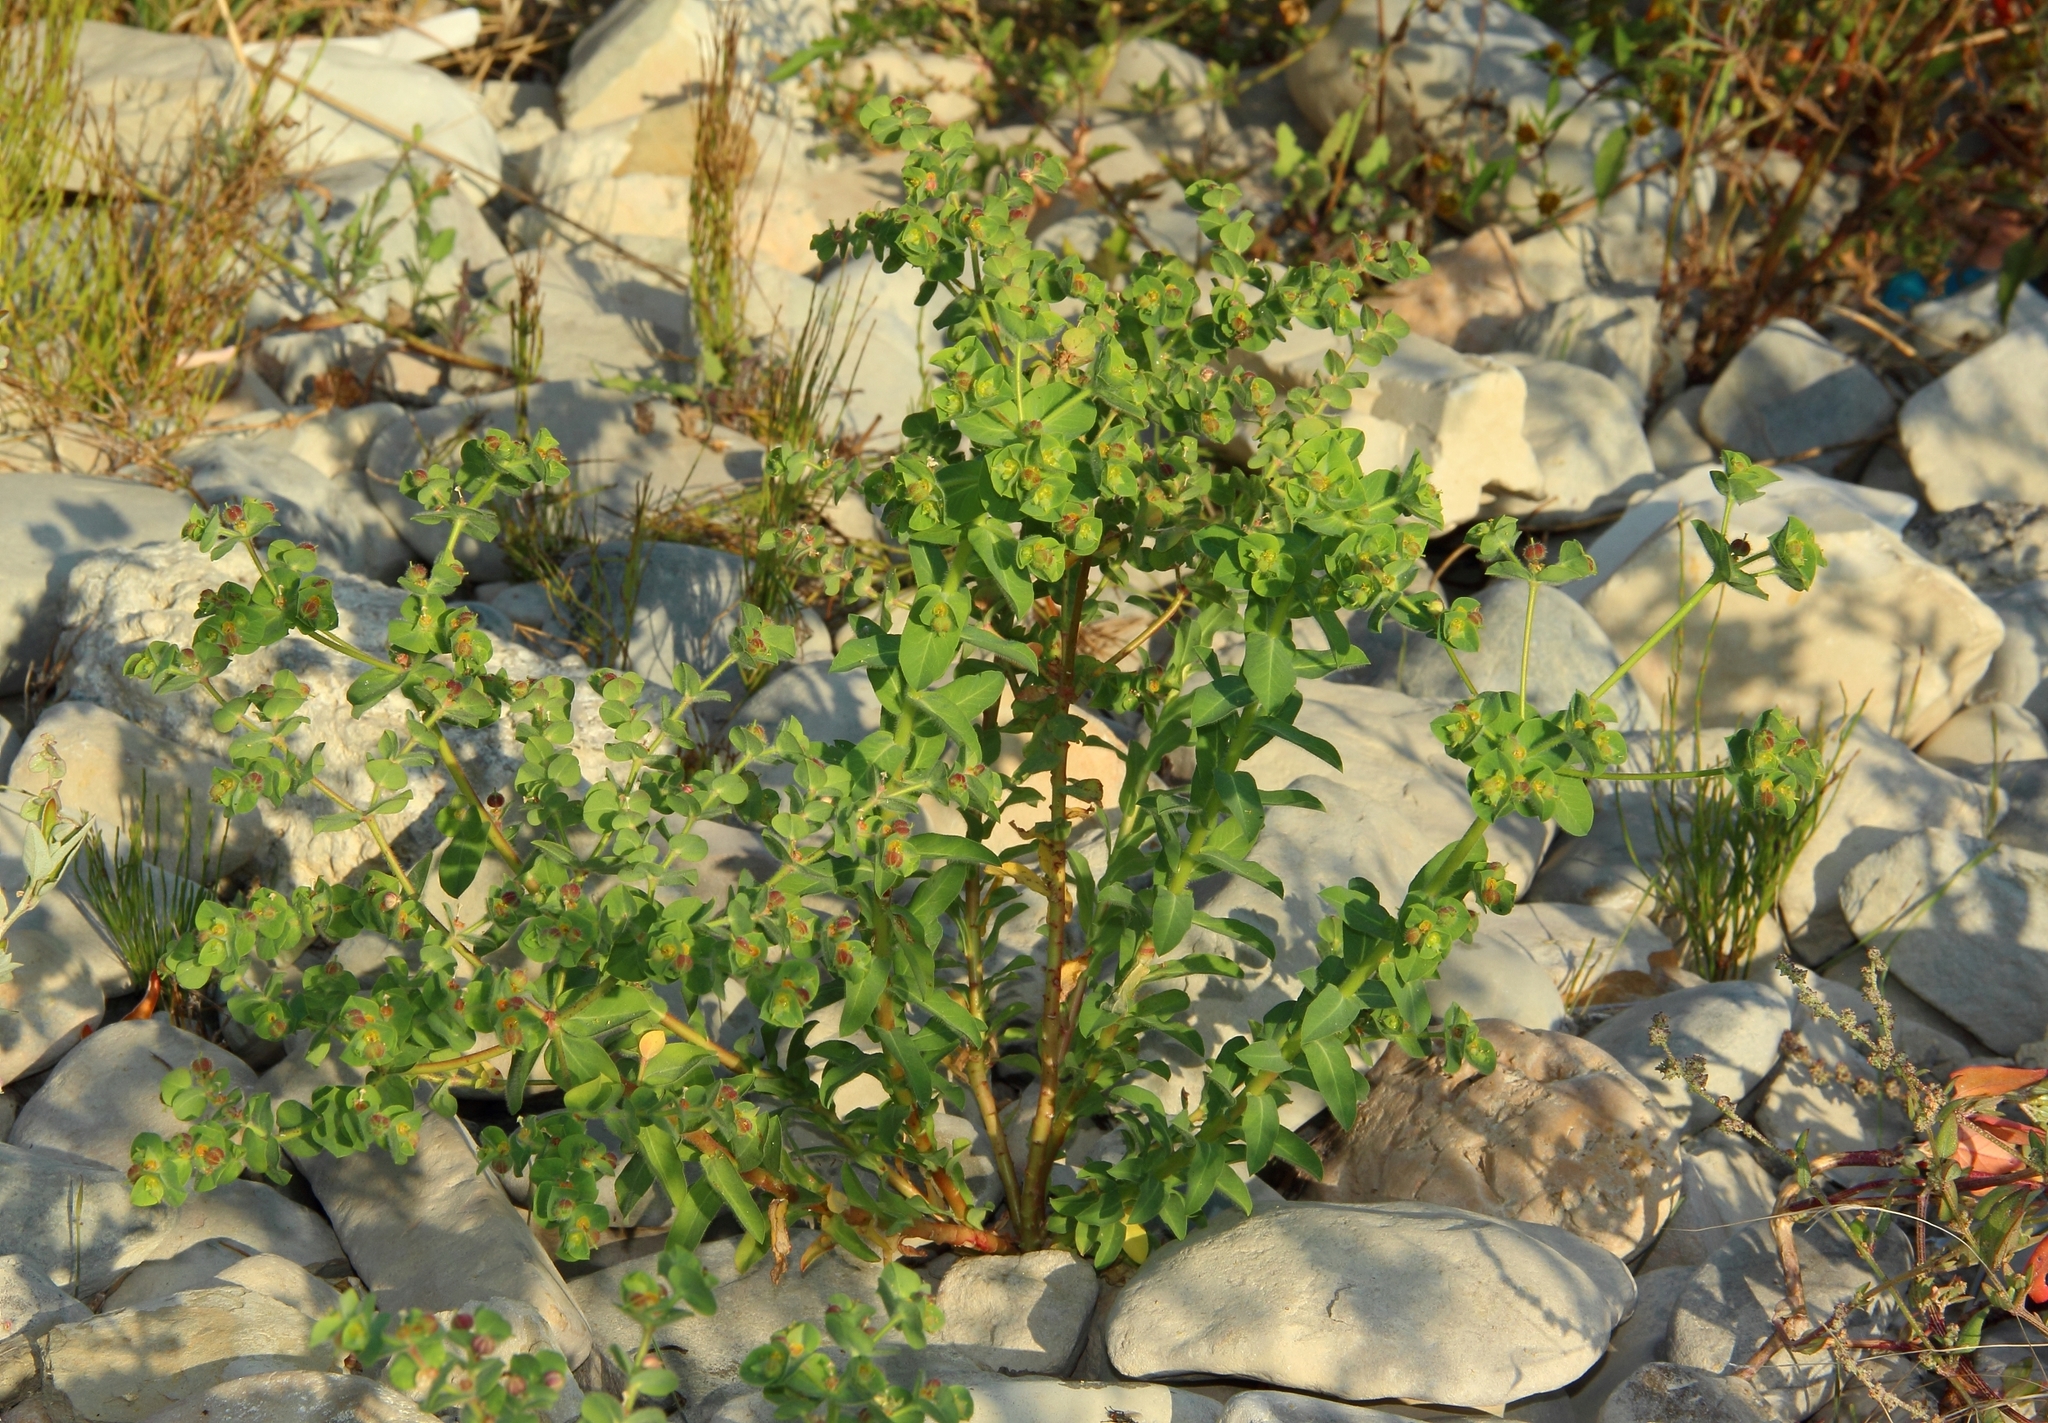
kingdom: Plantae
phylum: Tracheophyta
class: Magnoliopsida
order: Malpighiales
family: Euphorbiaceae
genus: Euphorbia
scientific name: Euphorbia hirsuta
